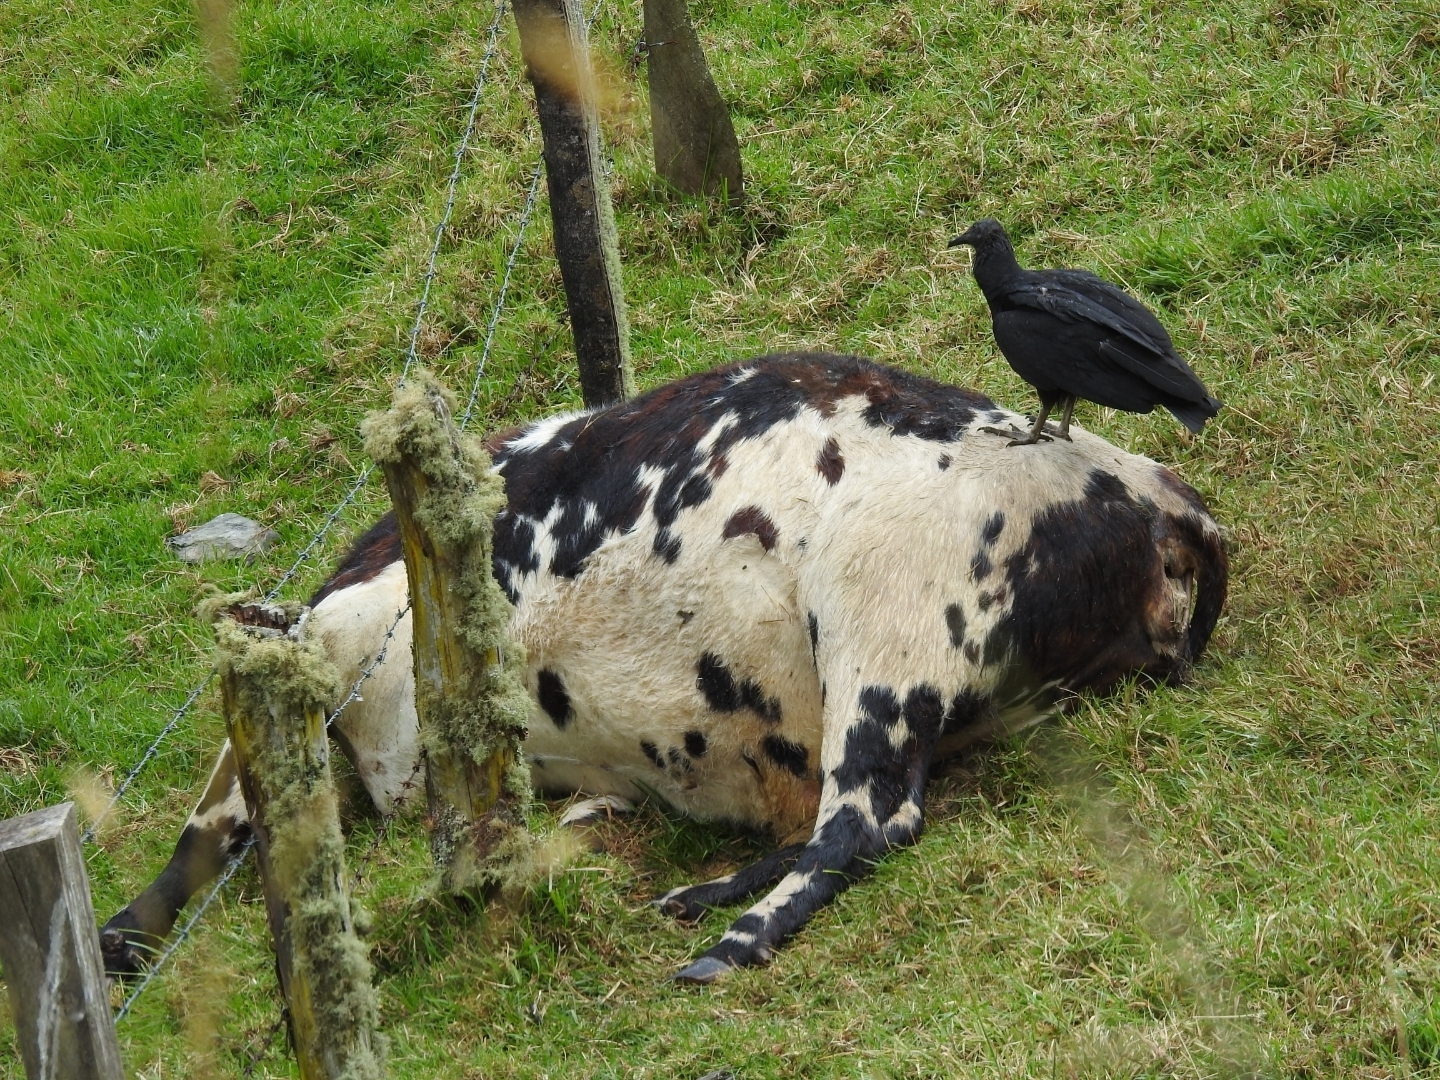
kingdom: Animalia
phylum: Chordata
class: Aves
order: Accipitriformes
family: Cathartidae
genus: Coragyps
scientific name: Coragyps atratus
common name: Black vulture
